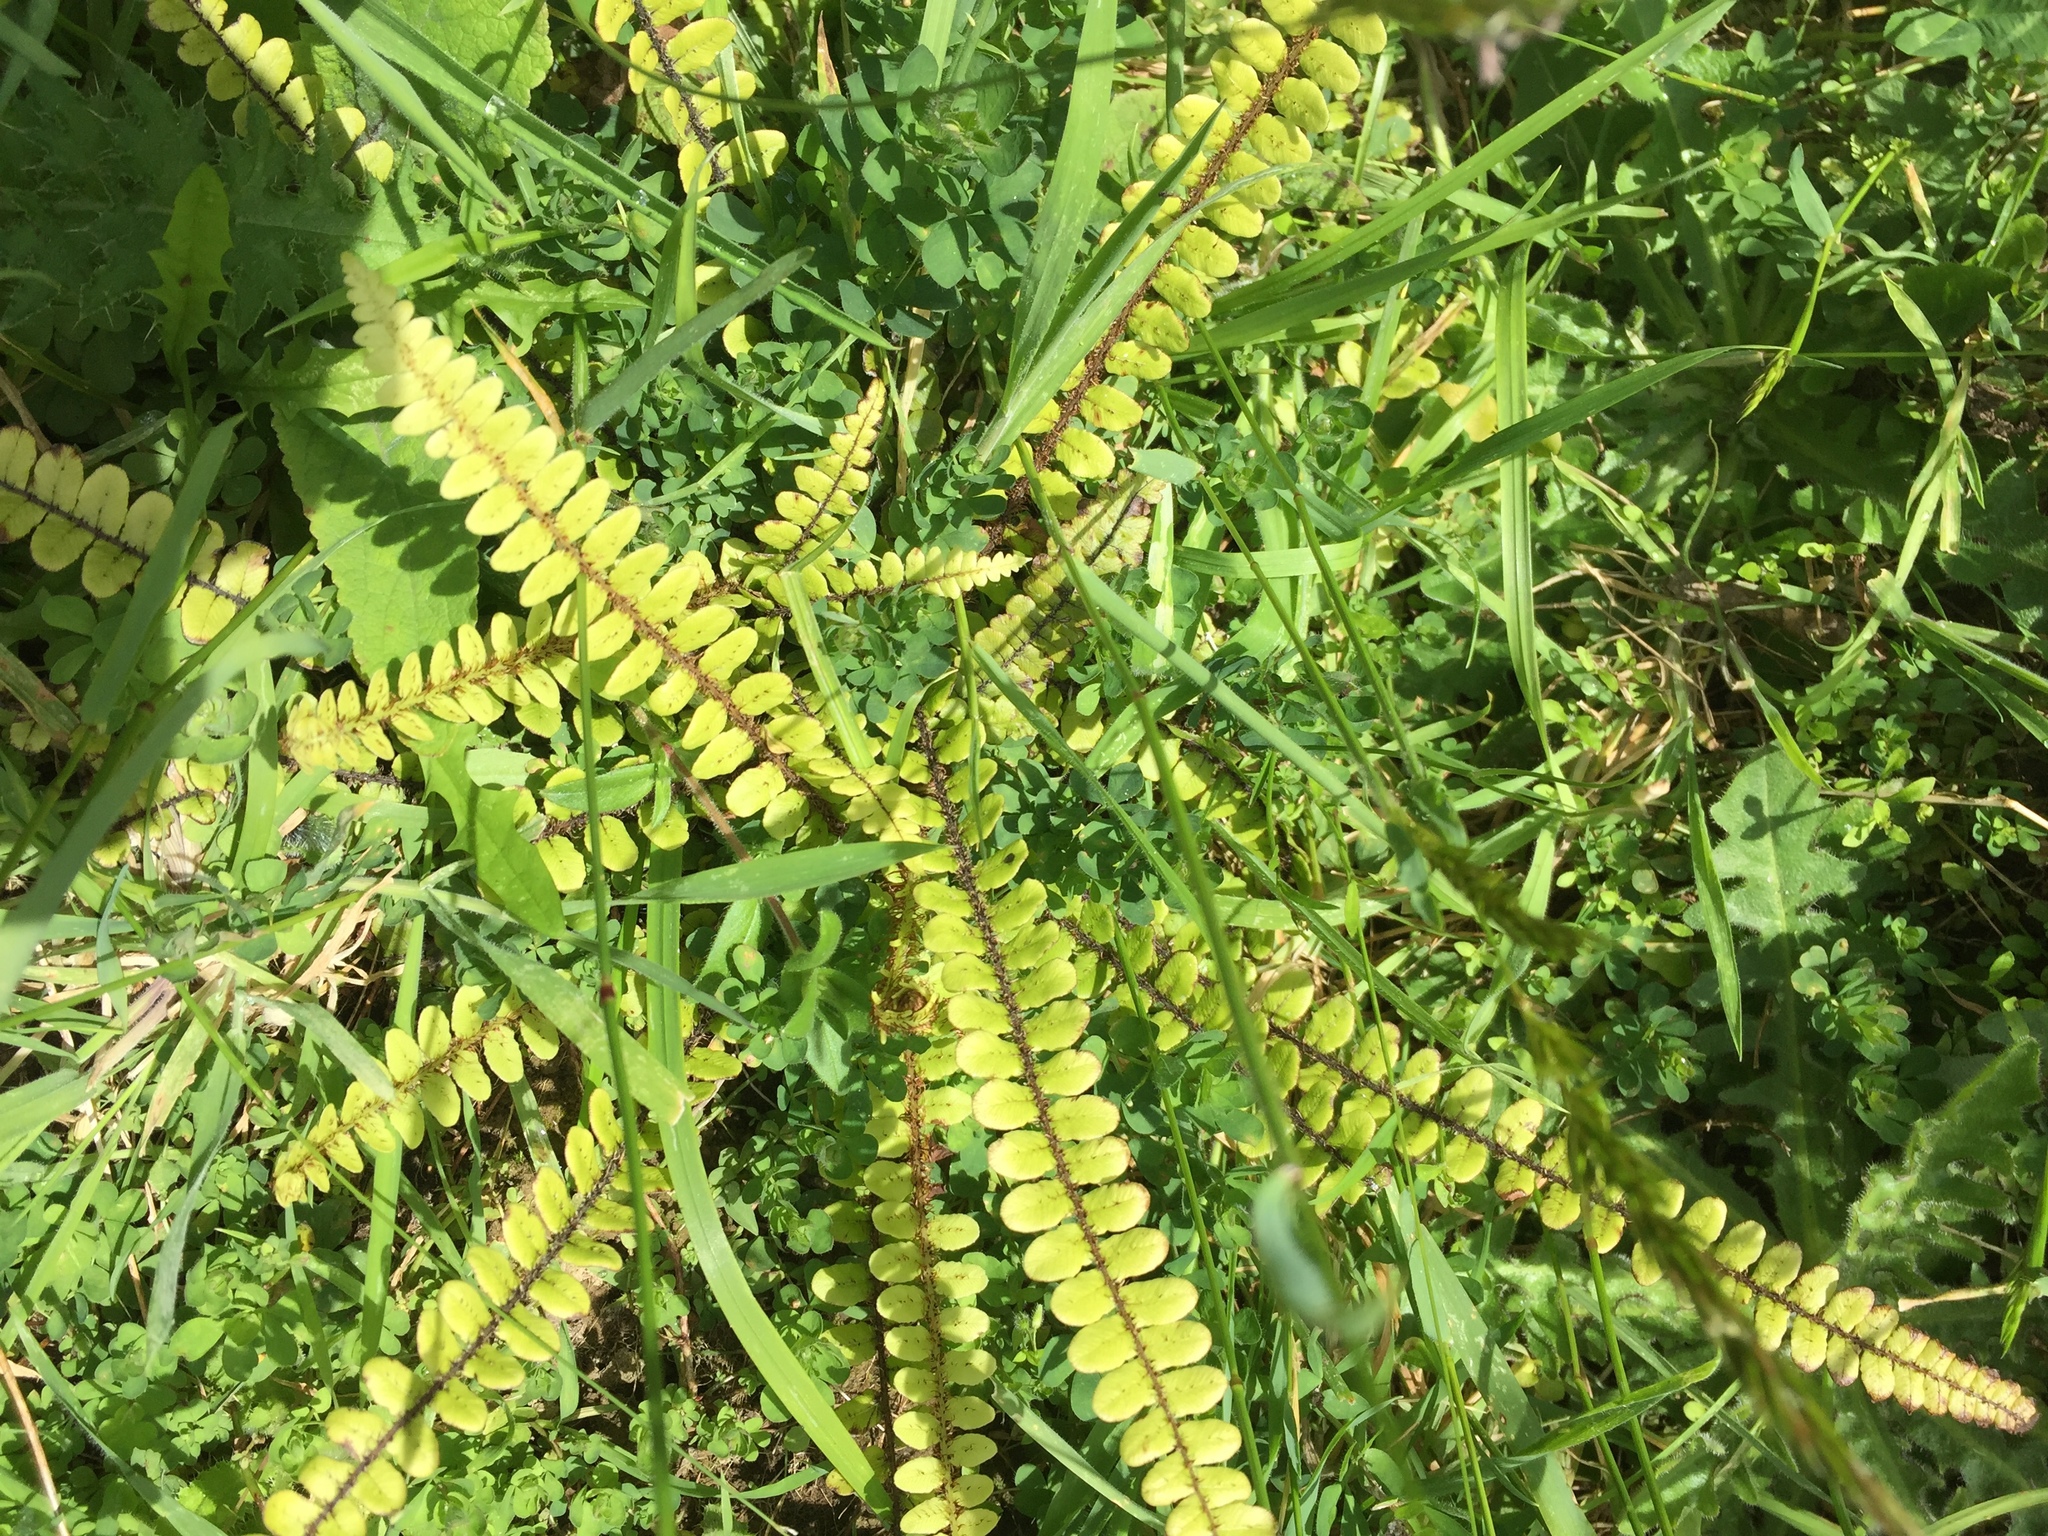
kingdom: Plantae
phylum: Tracheophyta
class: Polypodiopsida
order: Polypodiales
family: Blechnaceae
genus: Cranfillia
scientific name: Cranfillia fluviatilis
